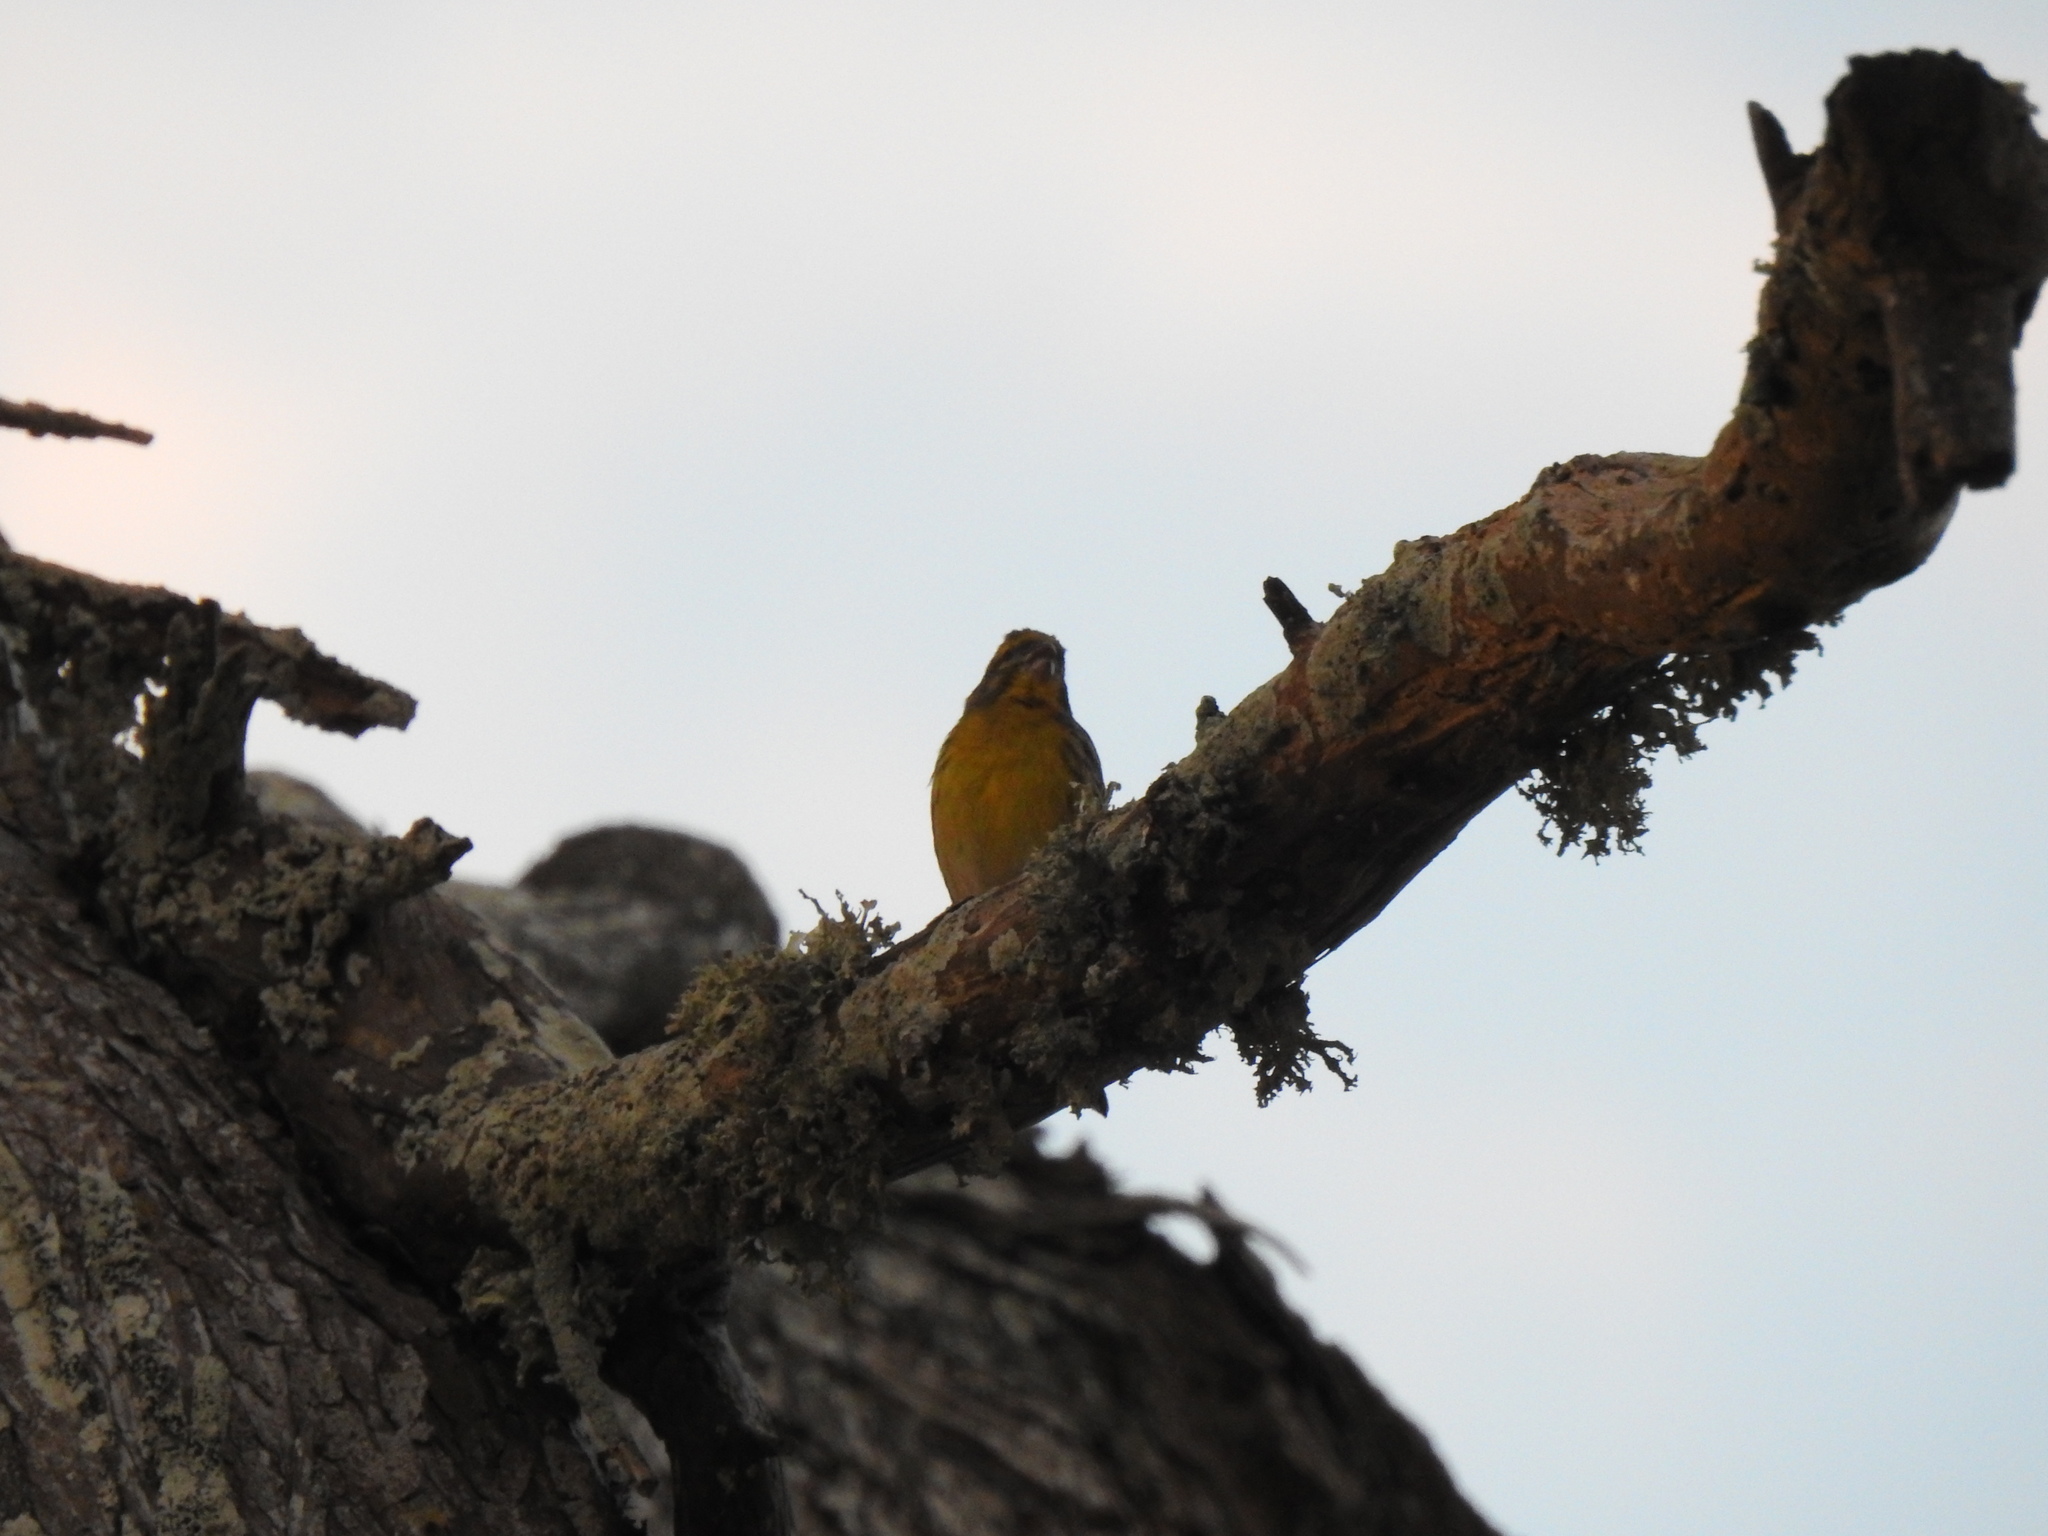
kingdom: Animalia
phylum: Chordata
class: Aves
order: Passeriformes
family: Fringillidae
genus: Serinus
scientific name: Serinus serinus
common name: European serin
